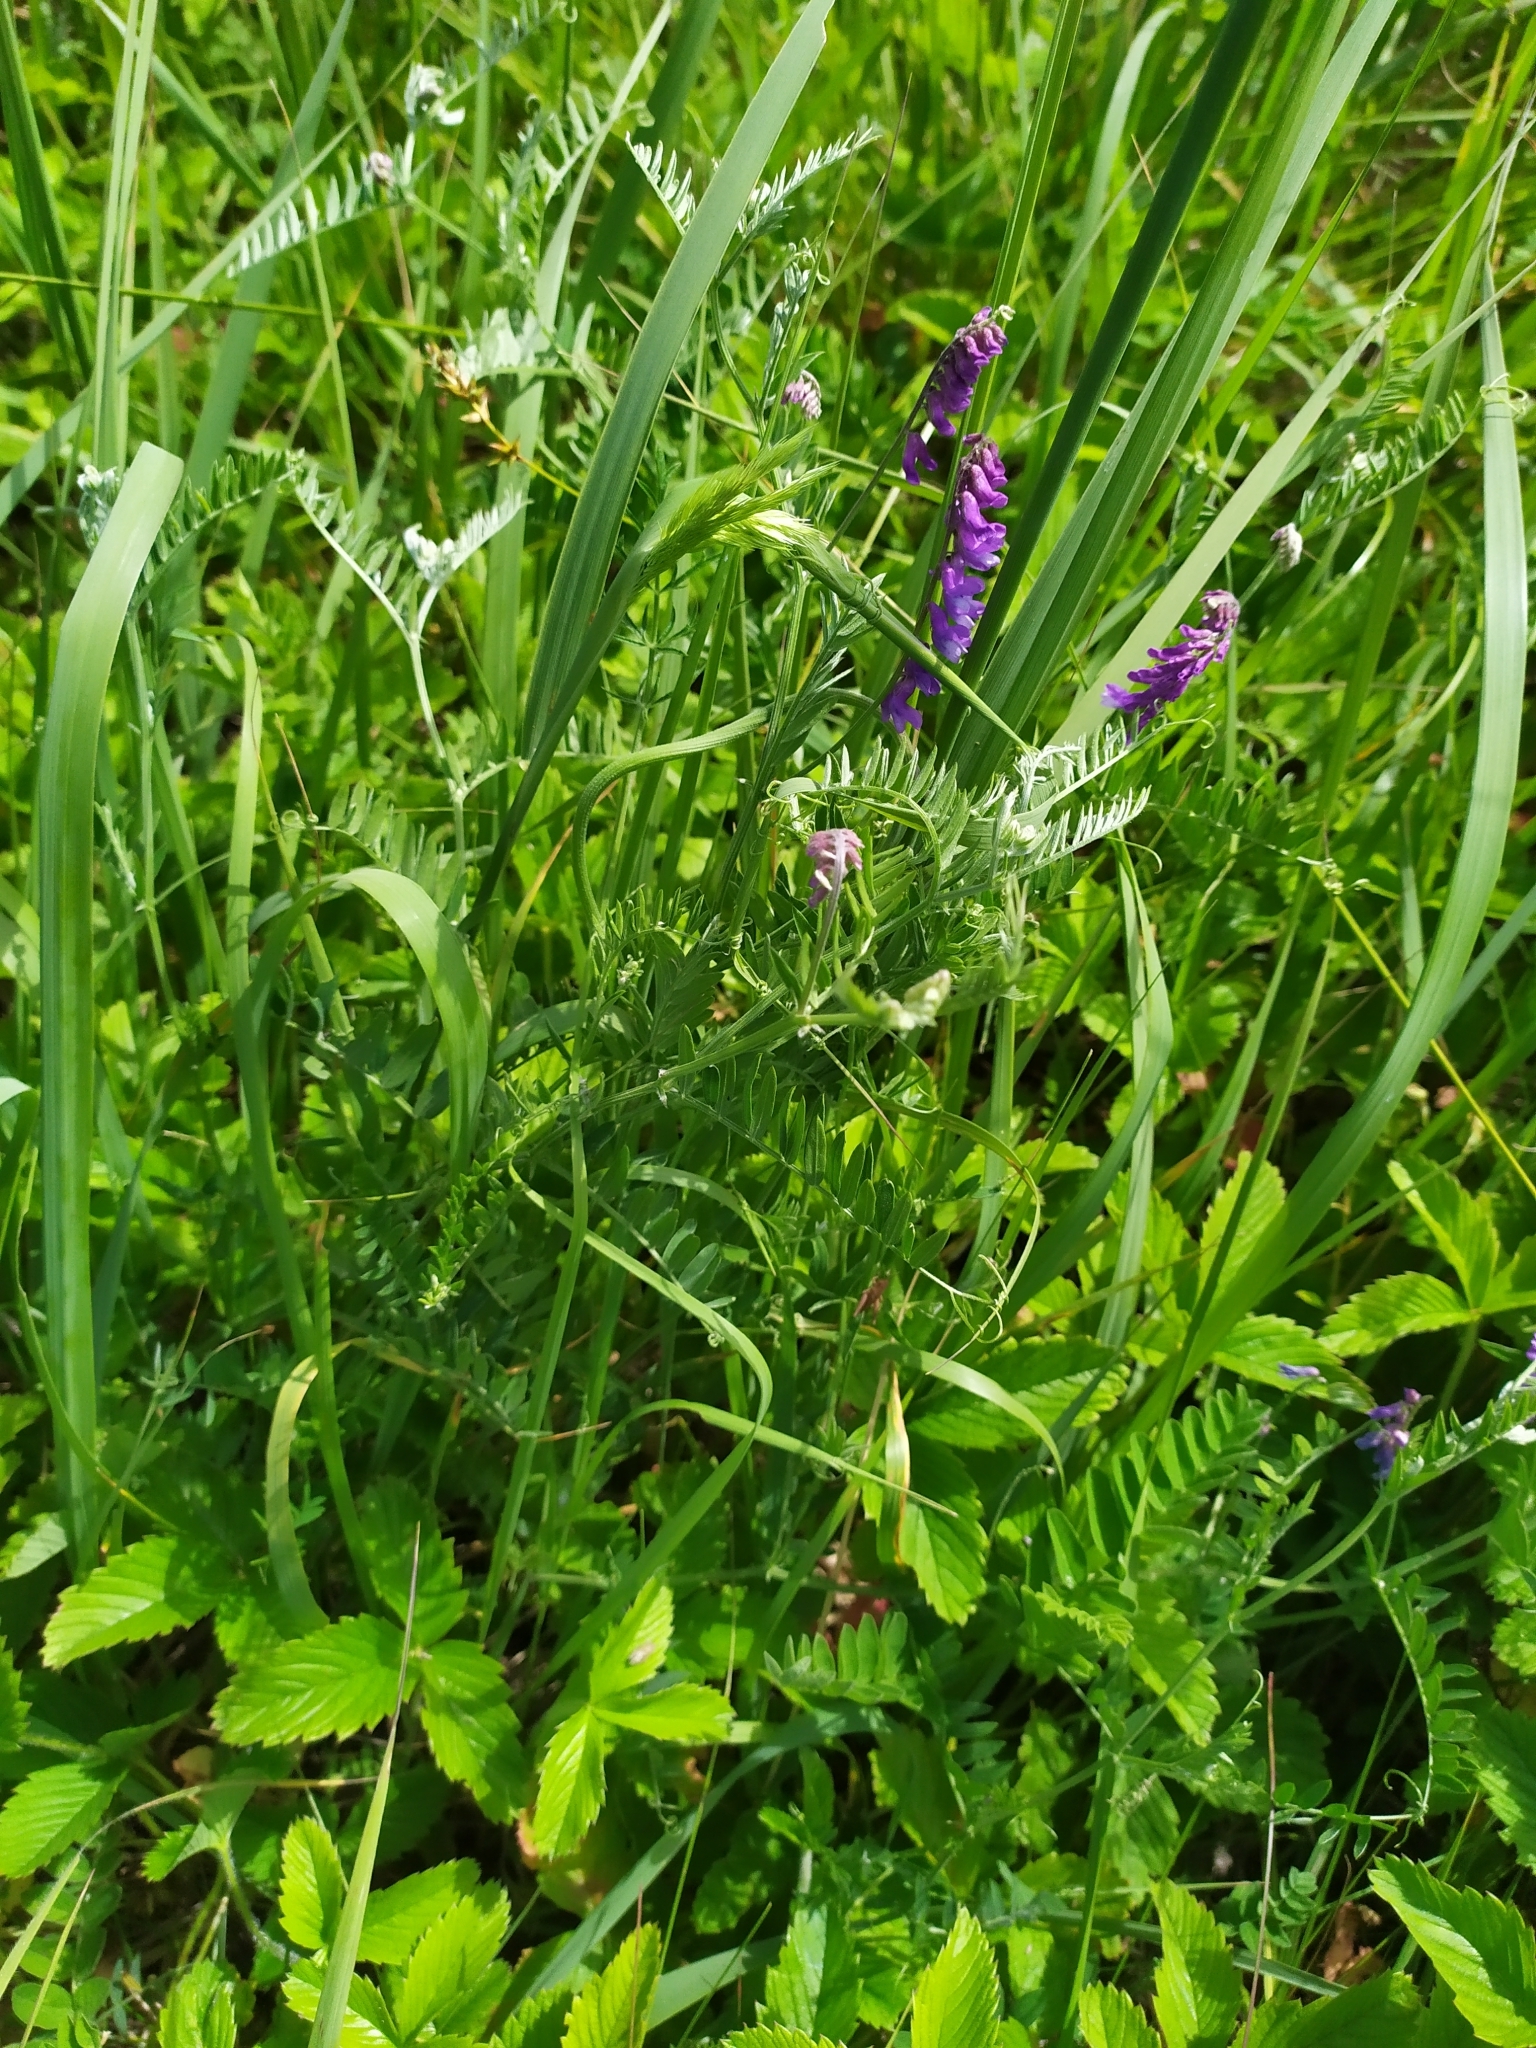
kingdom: Plantae
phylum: Tracheophyta
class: Magnoliopsida
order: Fabales
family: Fabaceae
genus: Vicia
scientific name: Vicia cracca
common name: Bird vetch
